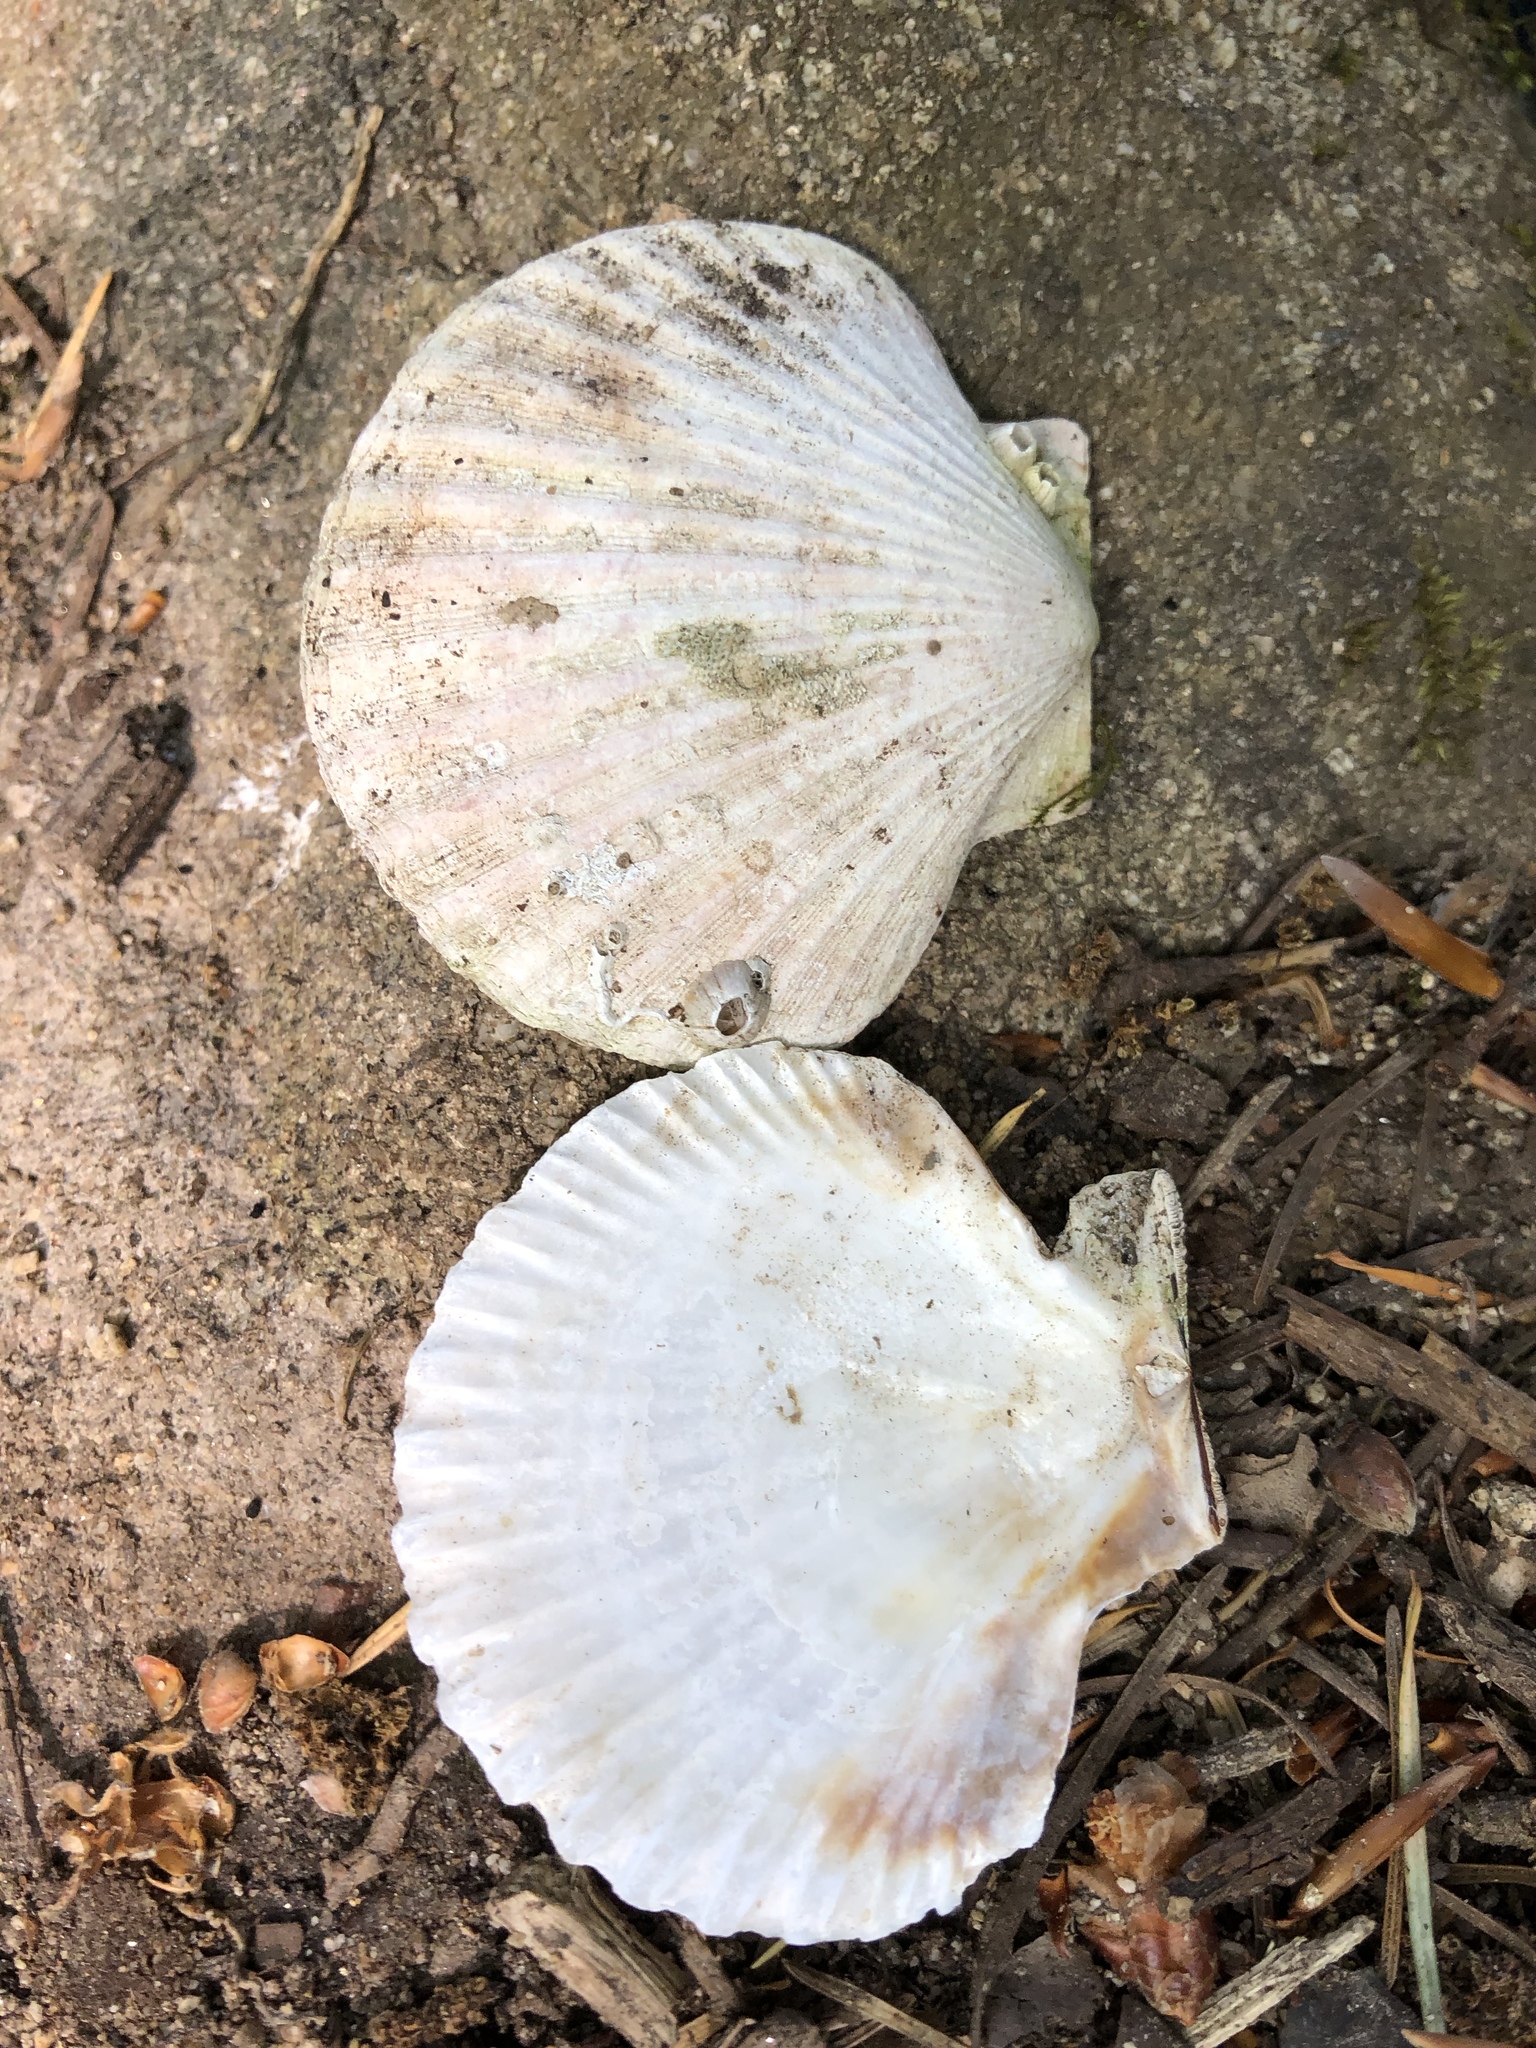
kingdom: Animalia
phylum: Mollusca
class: Bivalvia
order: Pectinida
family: Pectinidae
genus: Pecten
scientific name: Pecten maximus
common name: Great scallop
